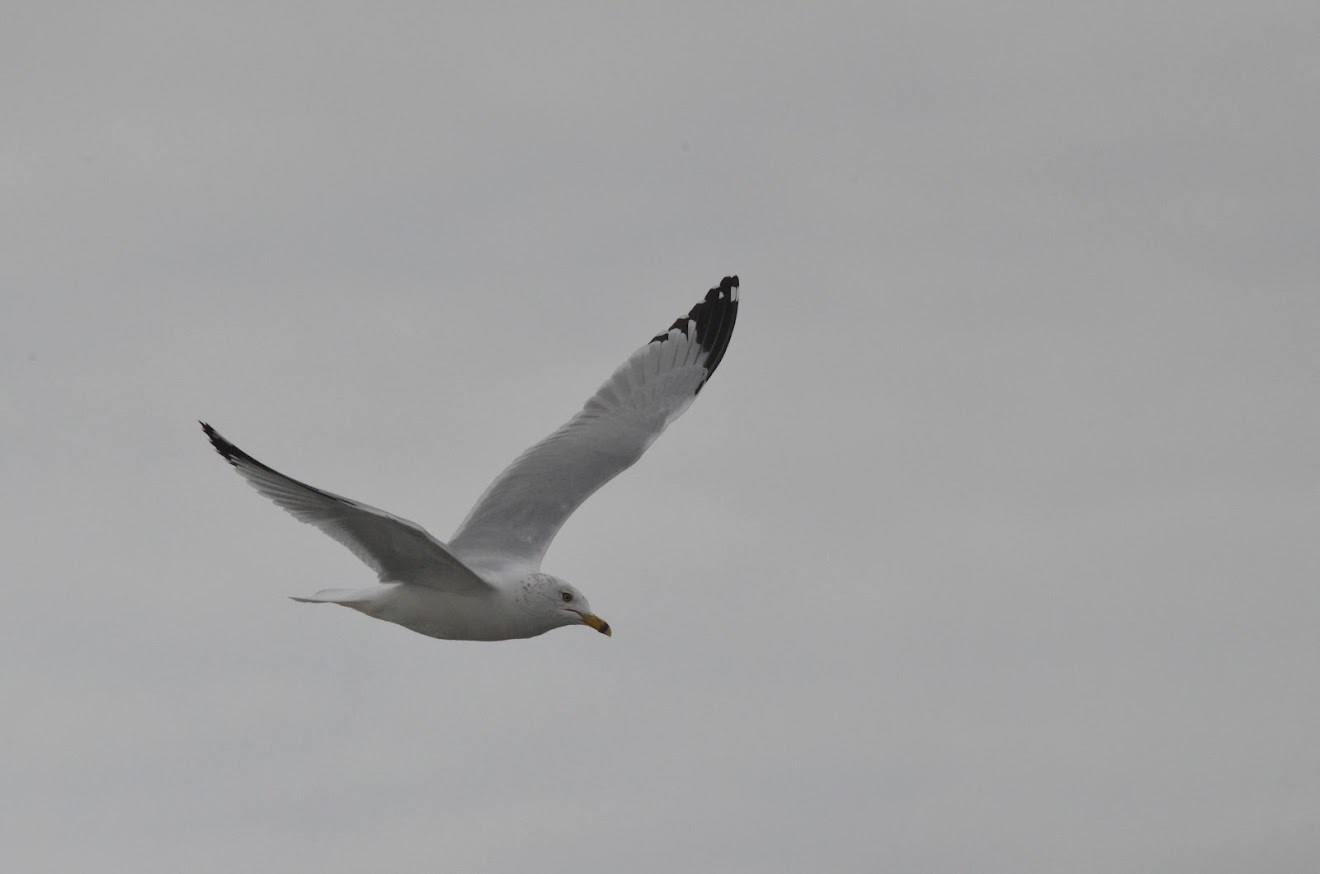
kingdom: Animalia
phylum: Chordata
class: Aves
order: Charadriiformes
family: Laridae
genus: Larus
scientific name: Larus delawarensis
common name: Ring-billed gull
